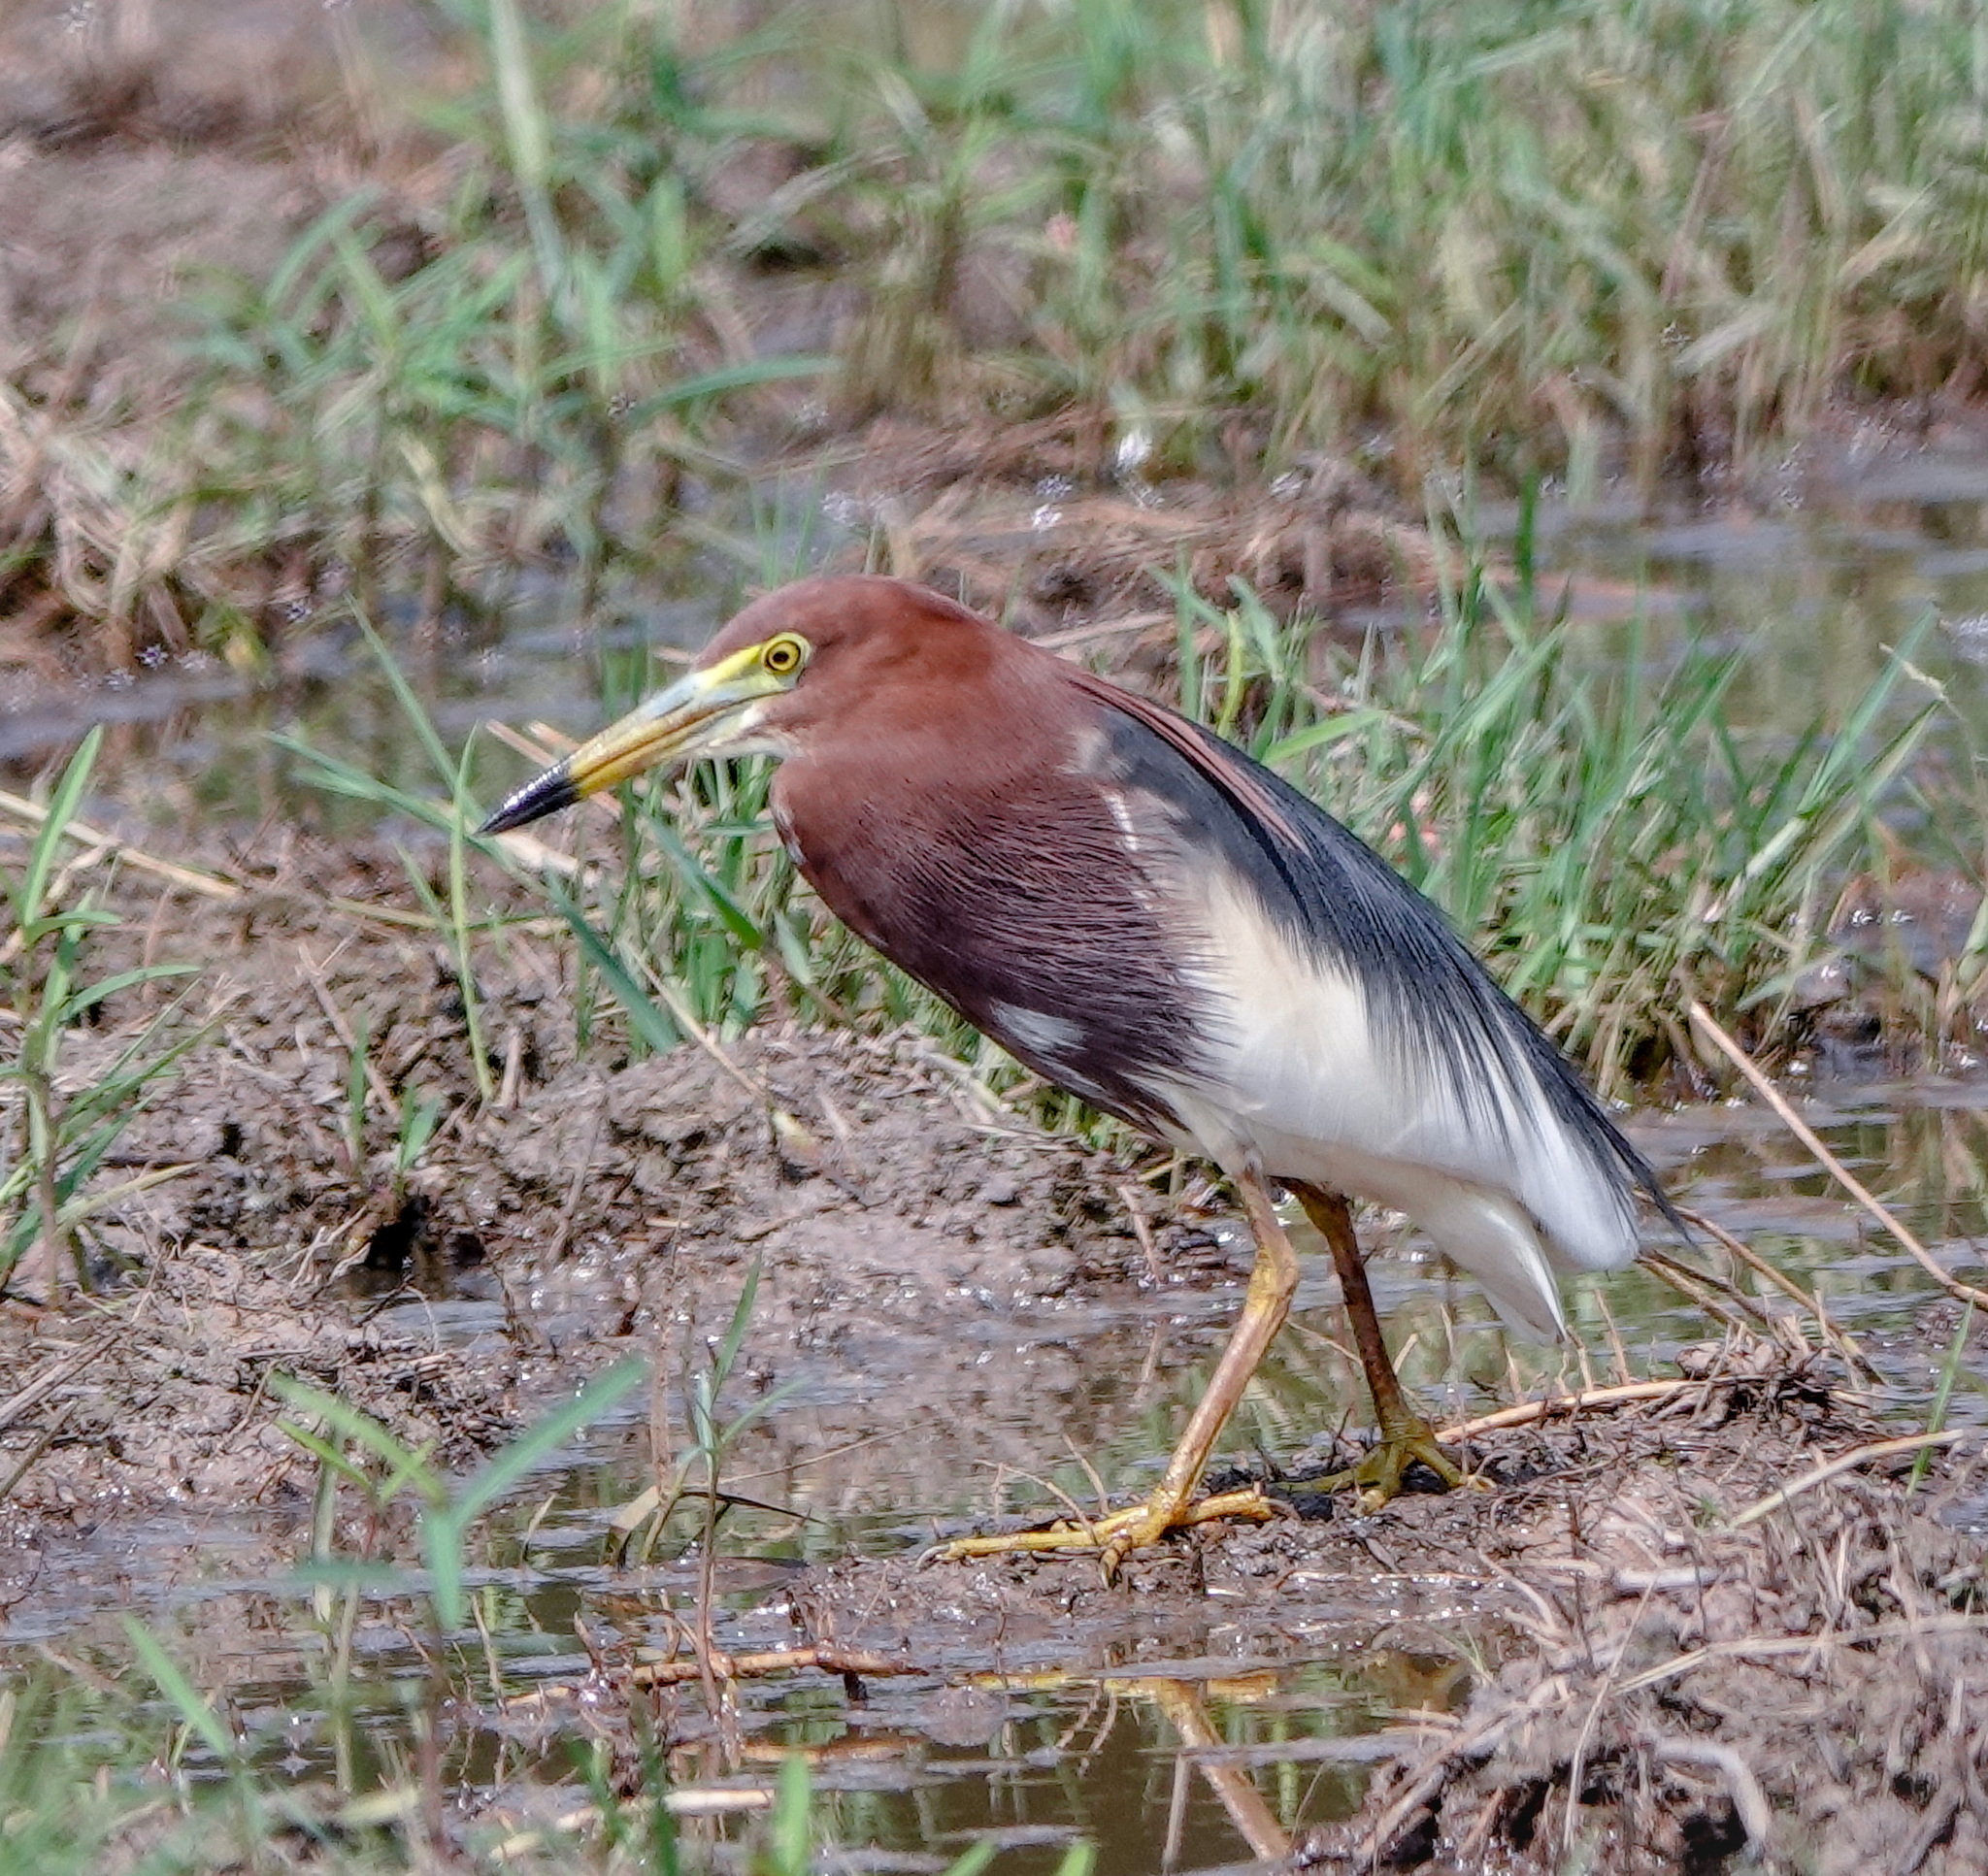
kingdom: Animalia
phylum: Chordata
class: Aves
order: Pelecaniformes
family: Ardeidae
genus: Ardeola
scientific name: Ardeola bacchus
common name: Chinese pond heron
